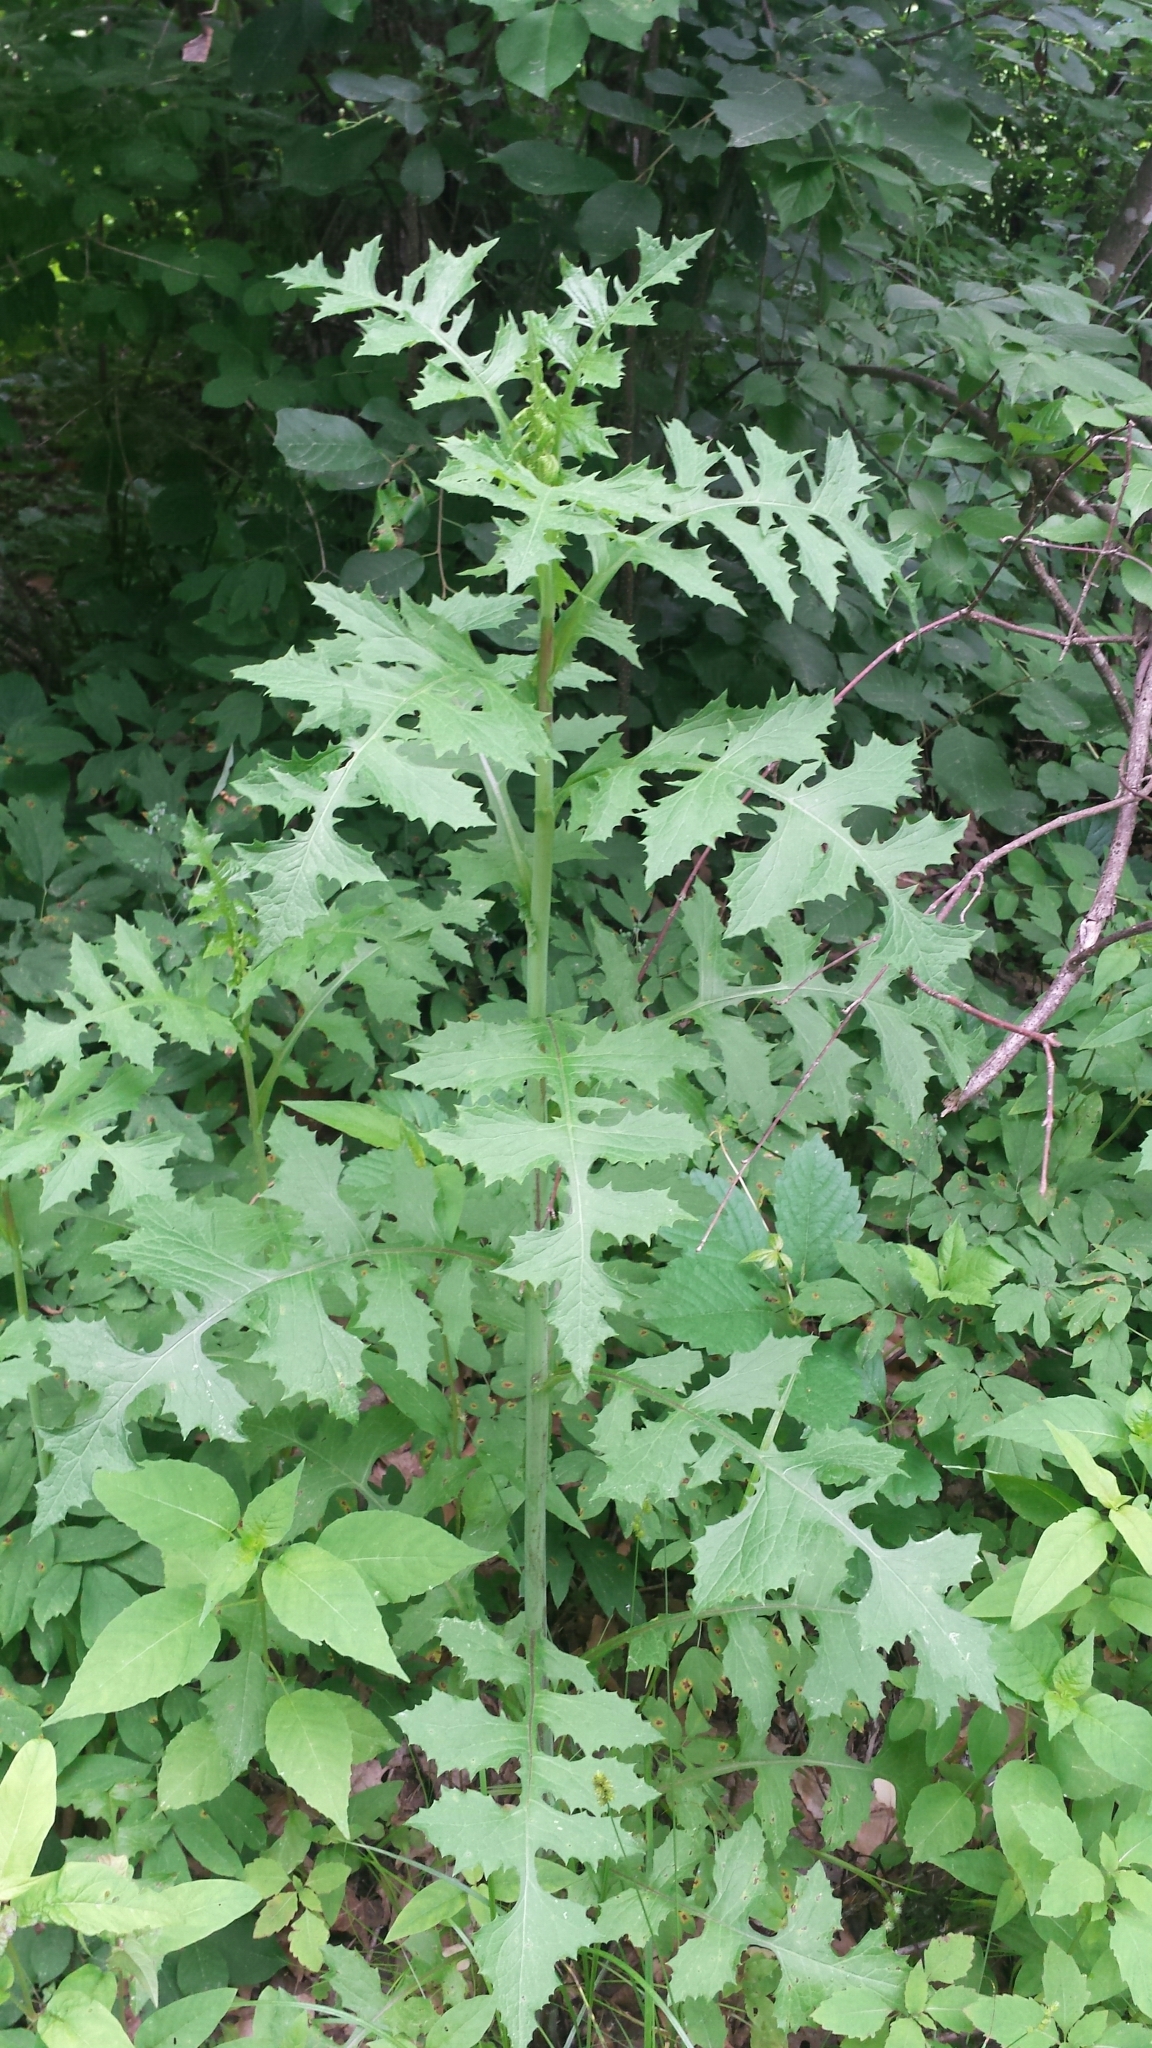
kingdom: Plantae
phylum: Tracheophyta
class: Magnoliopsida
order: Asterales
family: Asteraceae
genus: Lactuca
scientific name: Lactuca biennis
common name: Blue wood lettuce
